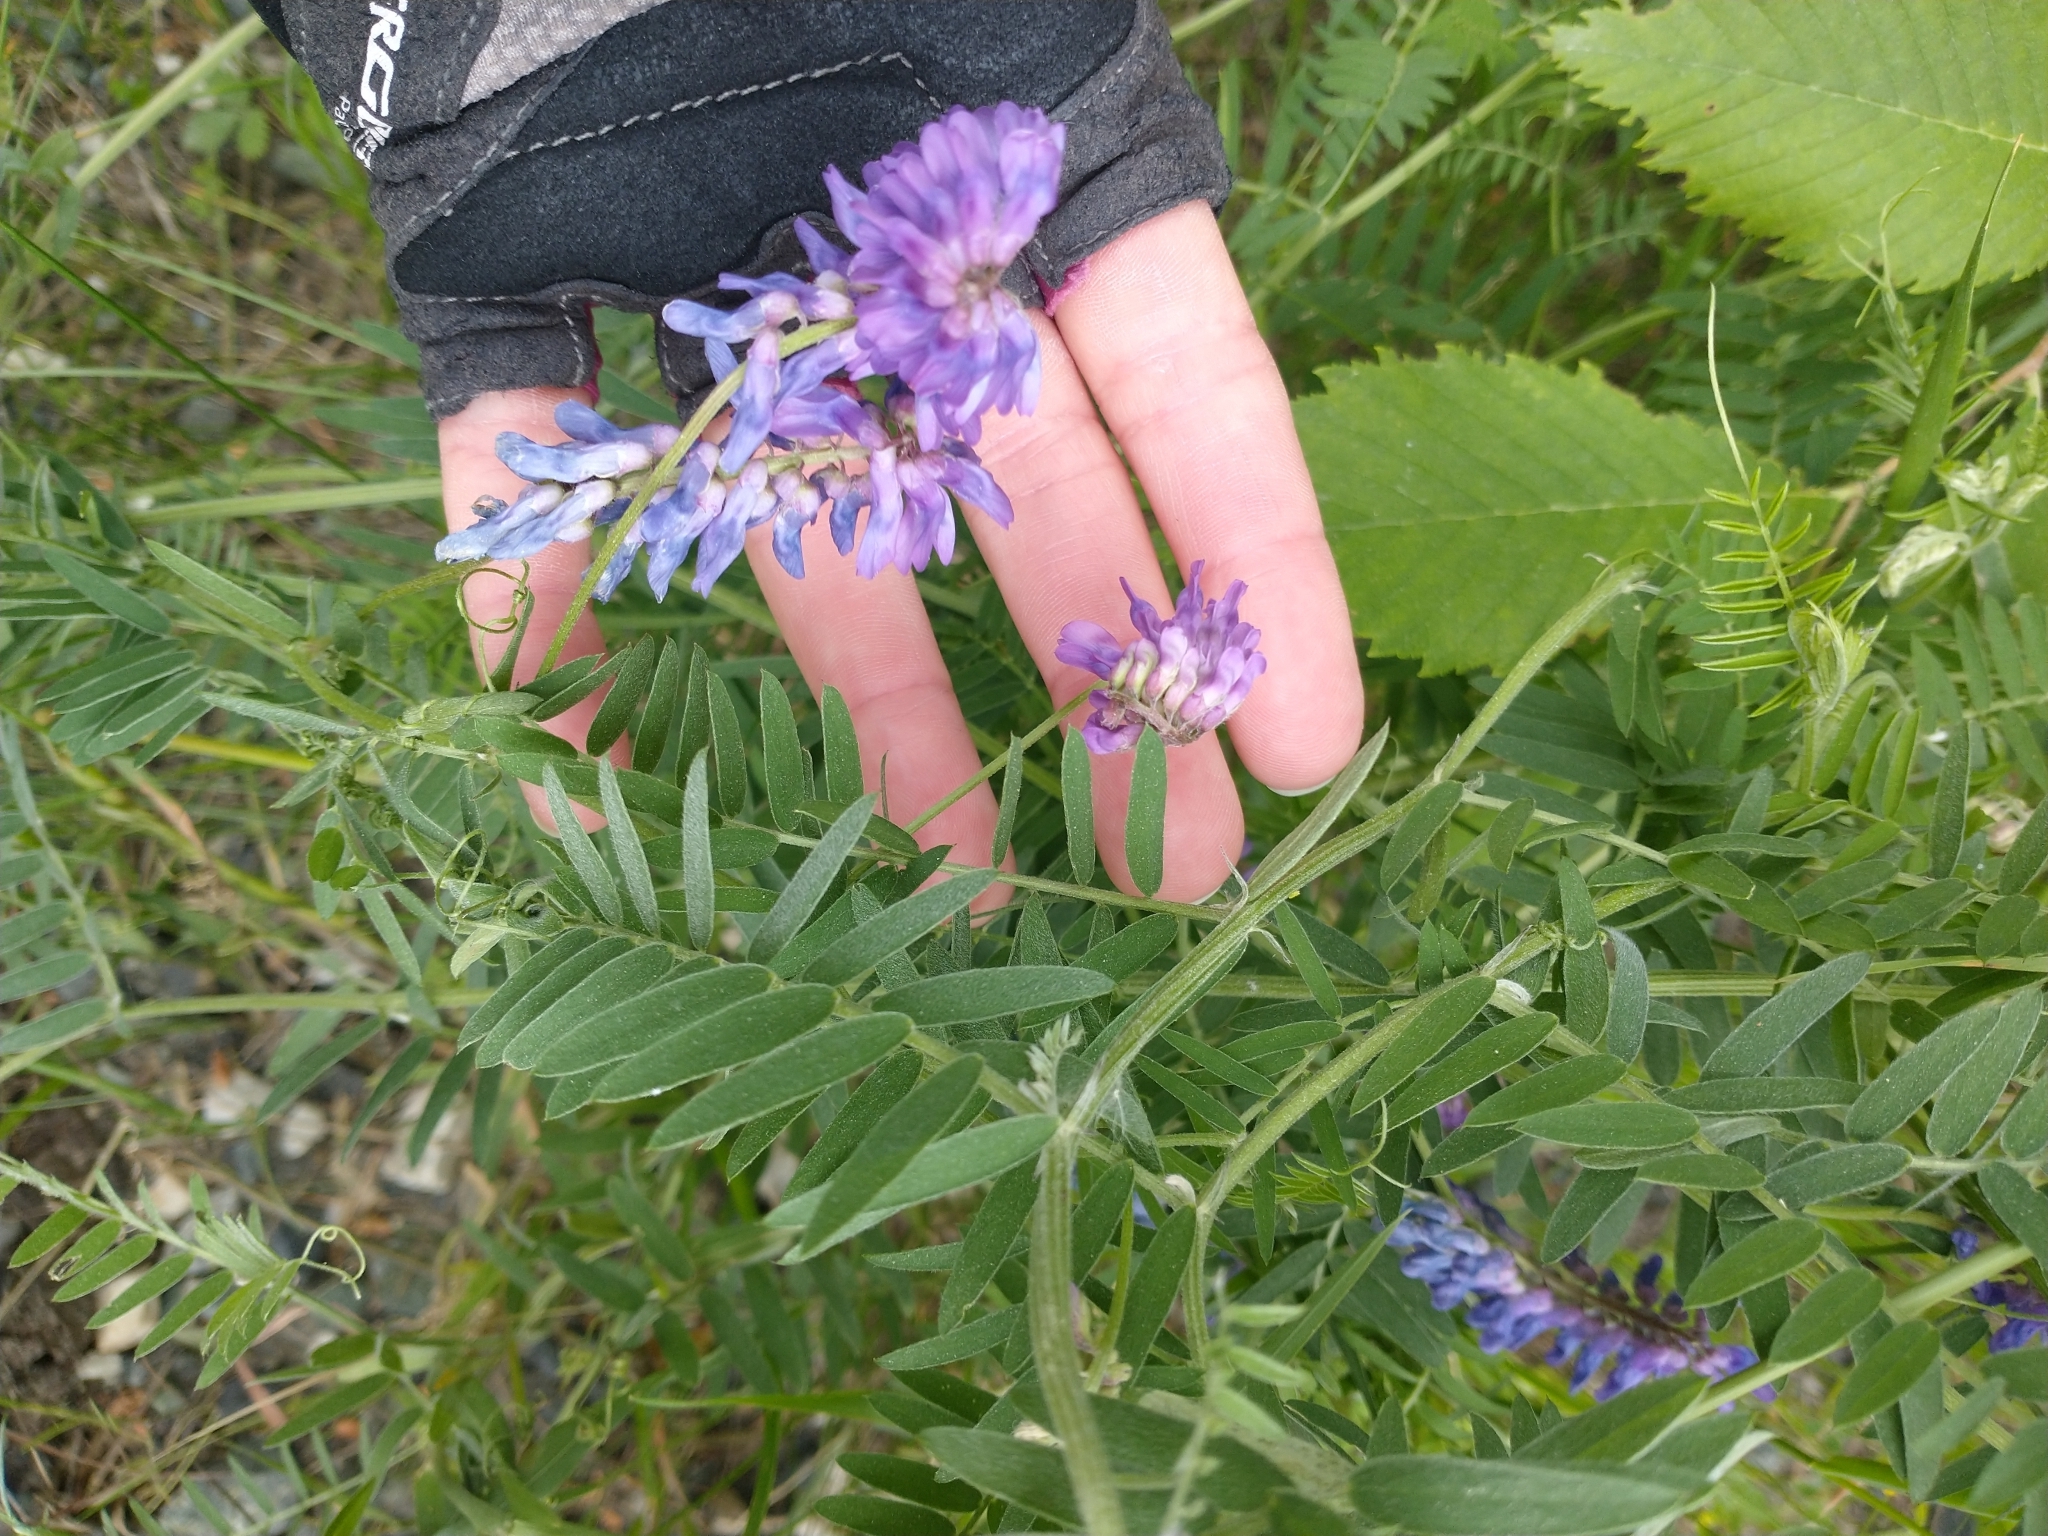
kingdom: Plantae
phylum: Tracheophyta
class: Magnoliopsida
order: Fabales
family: Fabaceae
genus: Vicia
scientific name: Vicia cracca
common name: Bird vetch
